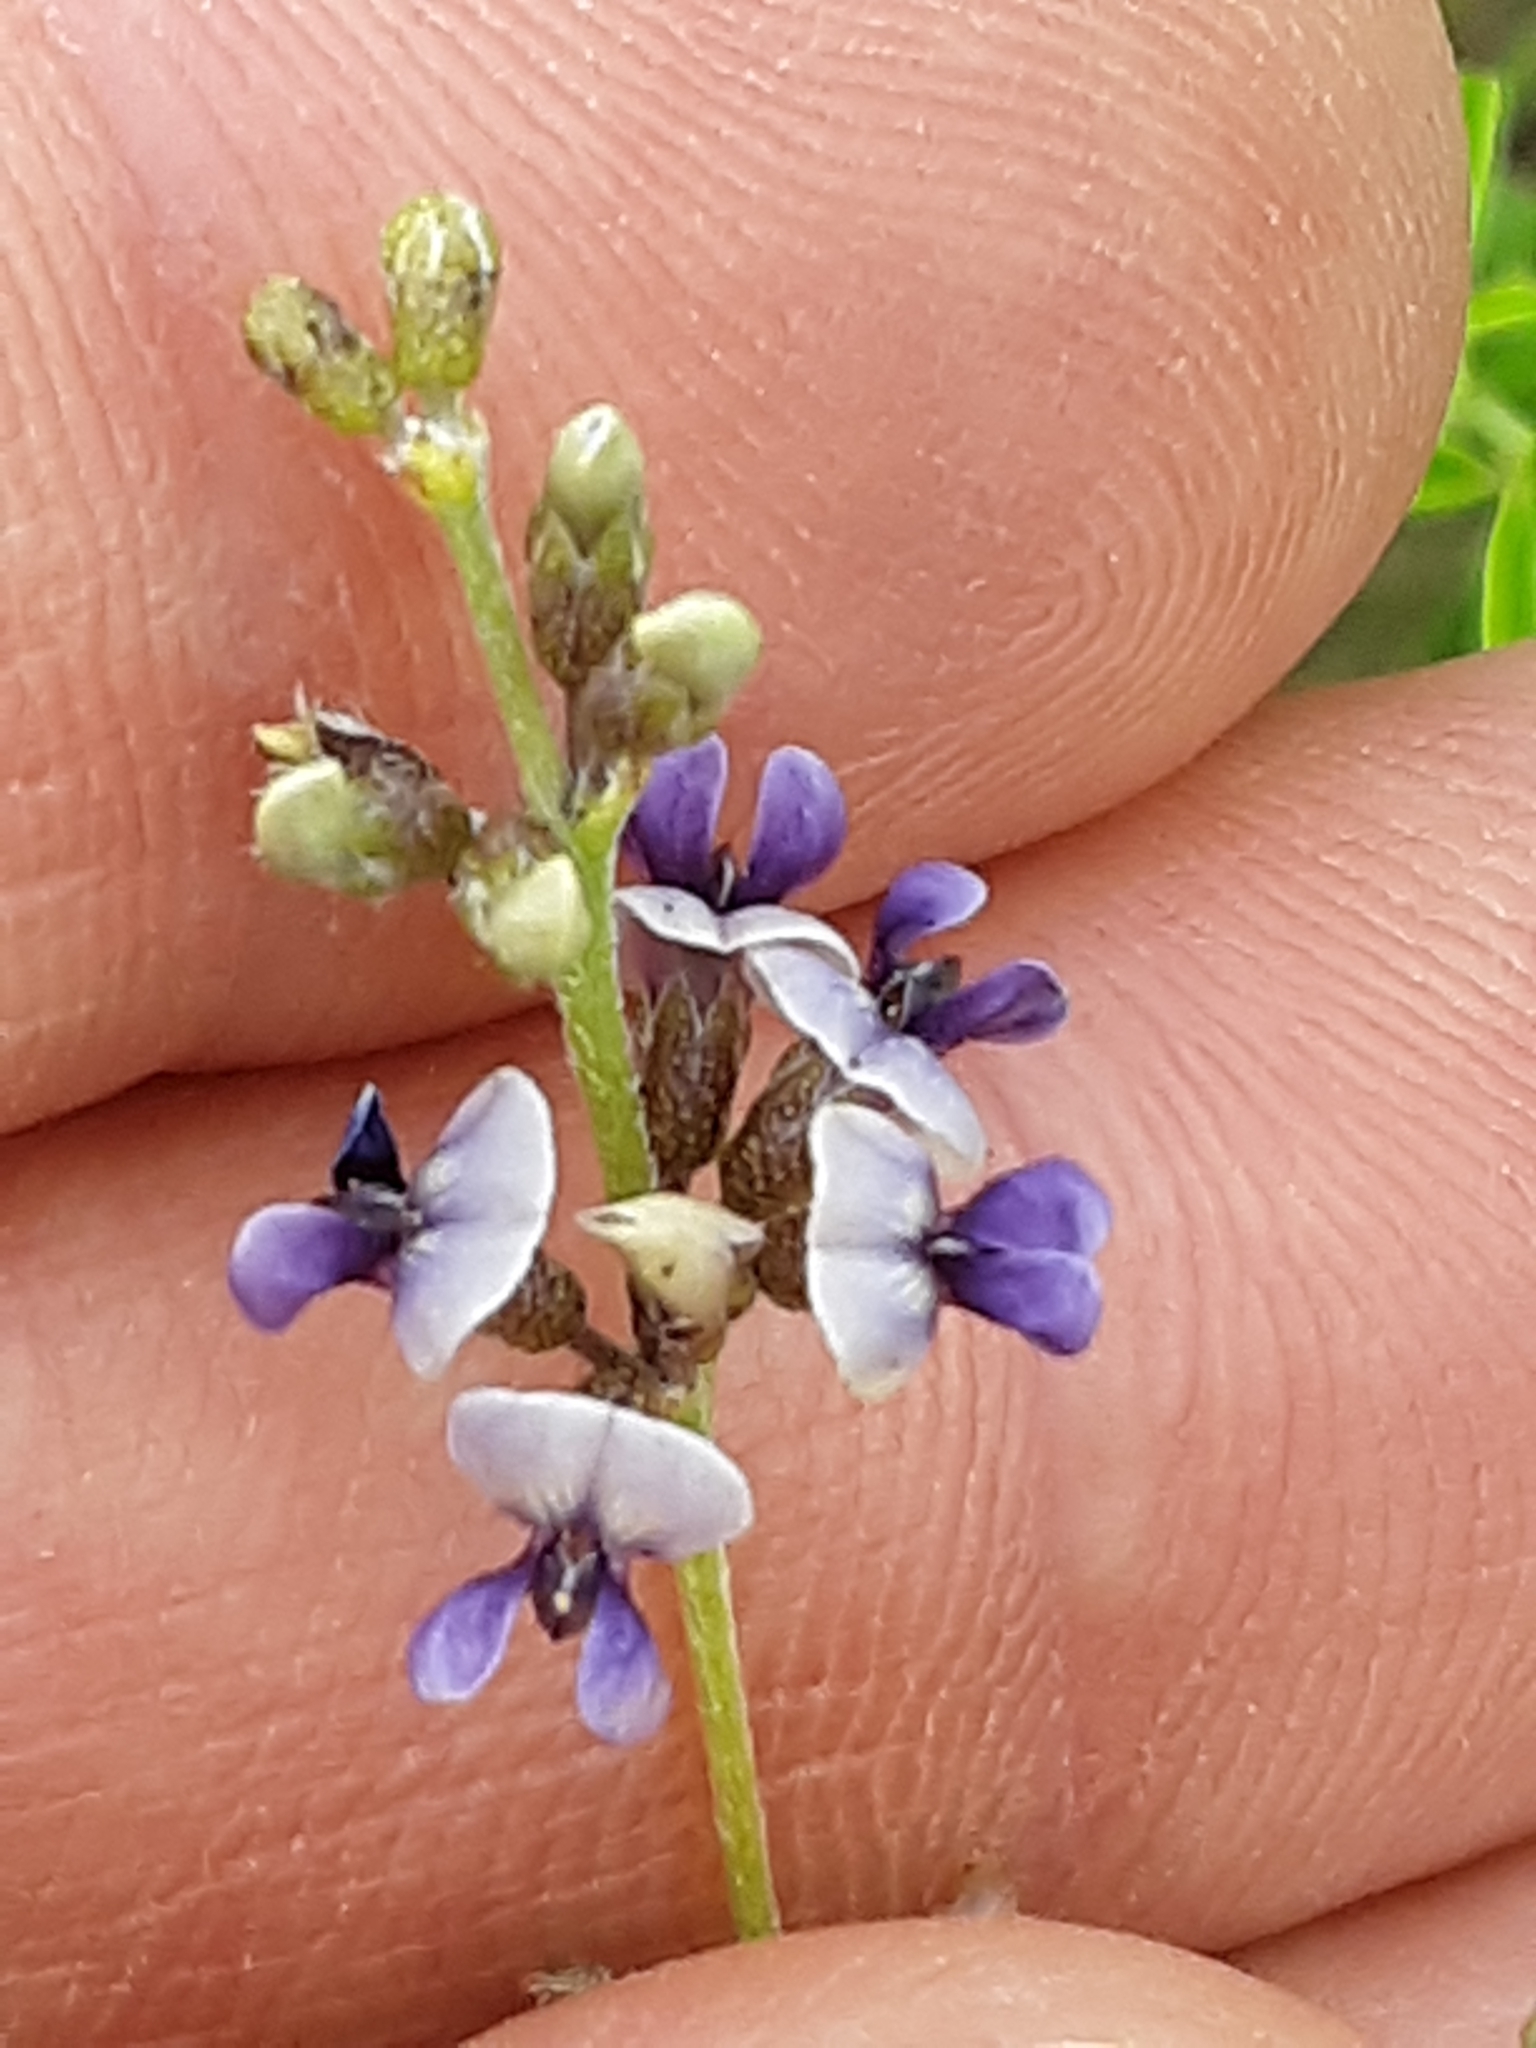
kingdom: Plantae
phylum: Tracheophyta
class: Magnoliopsida
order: Fabales
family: Fabaceae
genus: Pediomelum
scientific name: Pediomelum tenuiflorum
